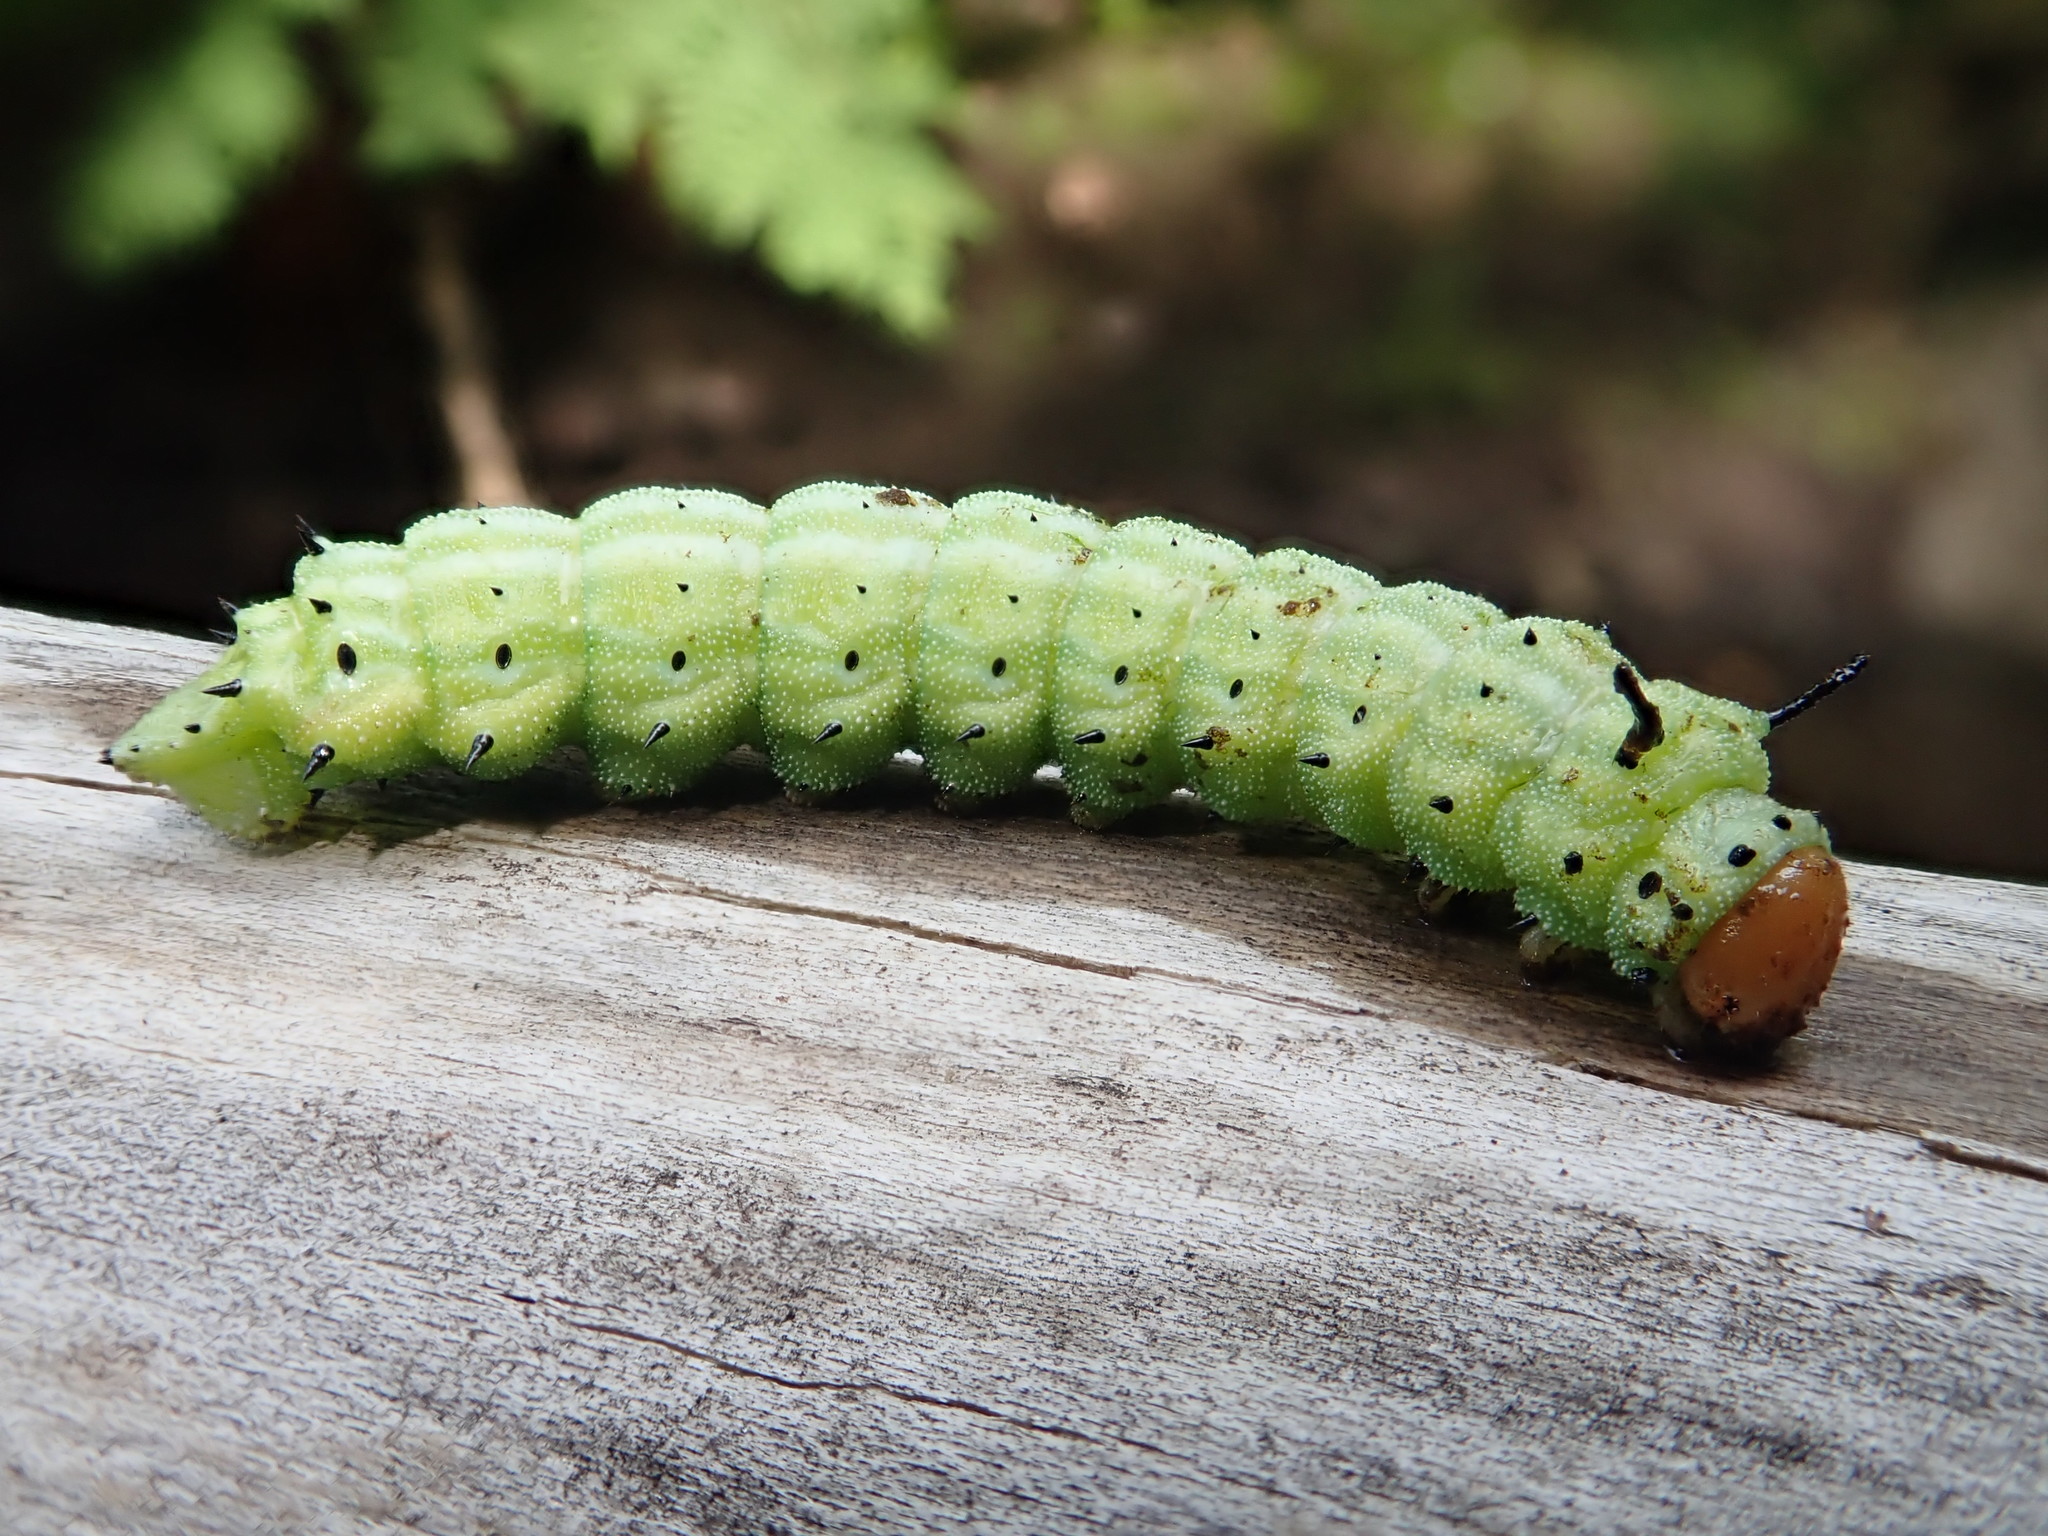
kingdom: Animalia
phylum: Arthropoda
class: Insecta
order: Lepidoptera
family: Saturniidae
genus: Dryocampa
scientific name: Dryocampa rubicunda
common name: Rosy maple moth
